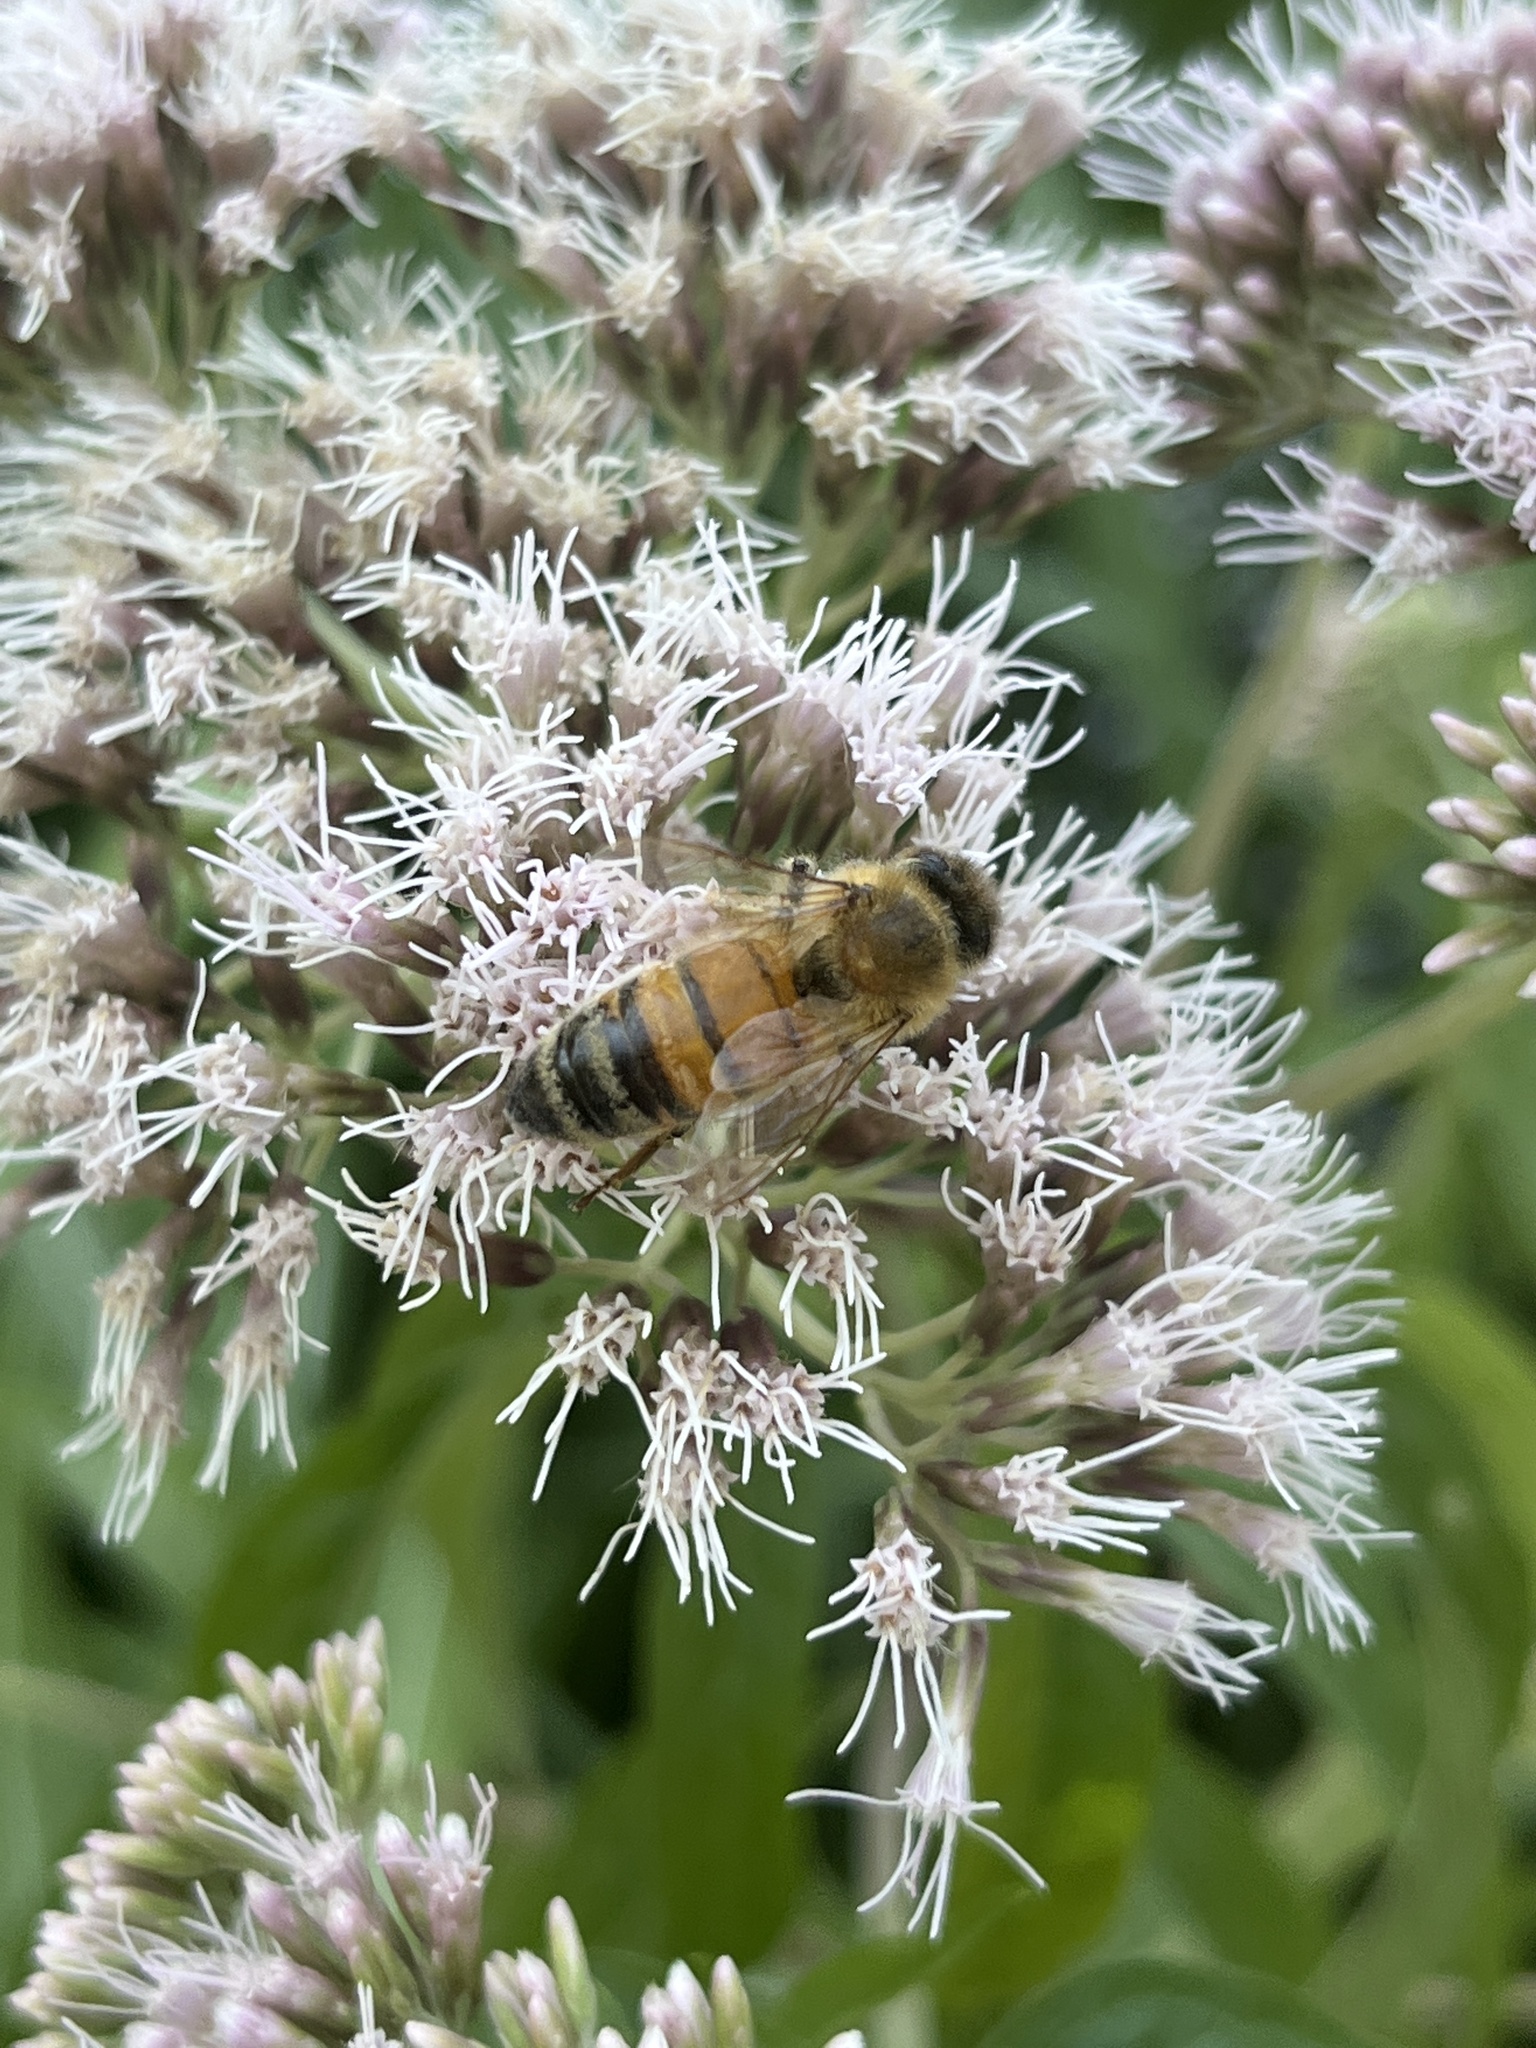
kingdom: Animalia
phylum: Arthropoda
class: Insecta
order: Hymenoptera
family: Apidae
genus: Apis
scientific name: Apis mellifera
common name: Honey bee
